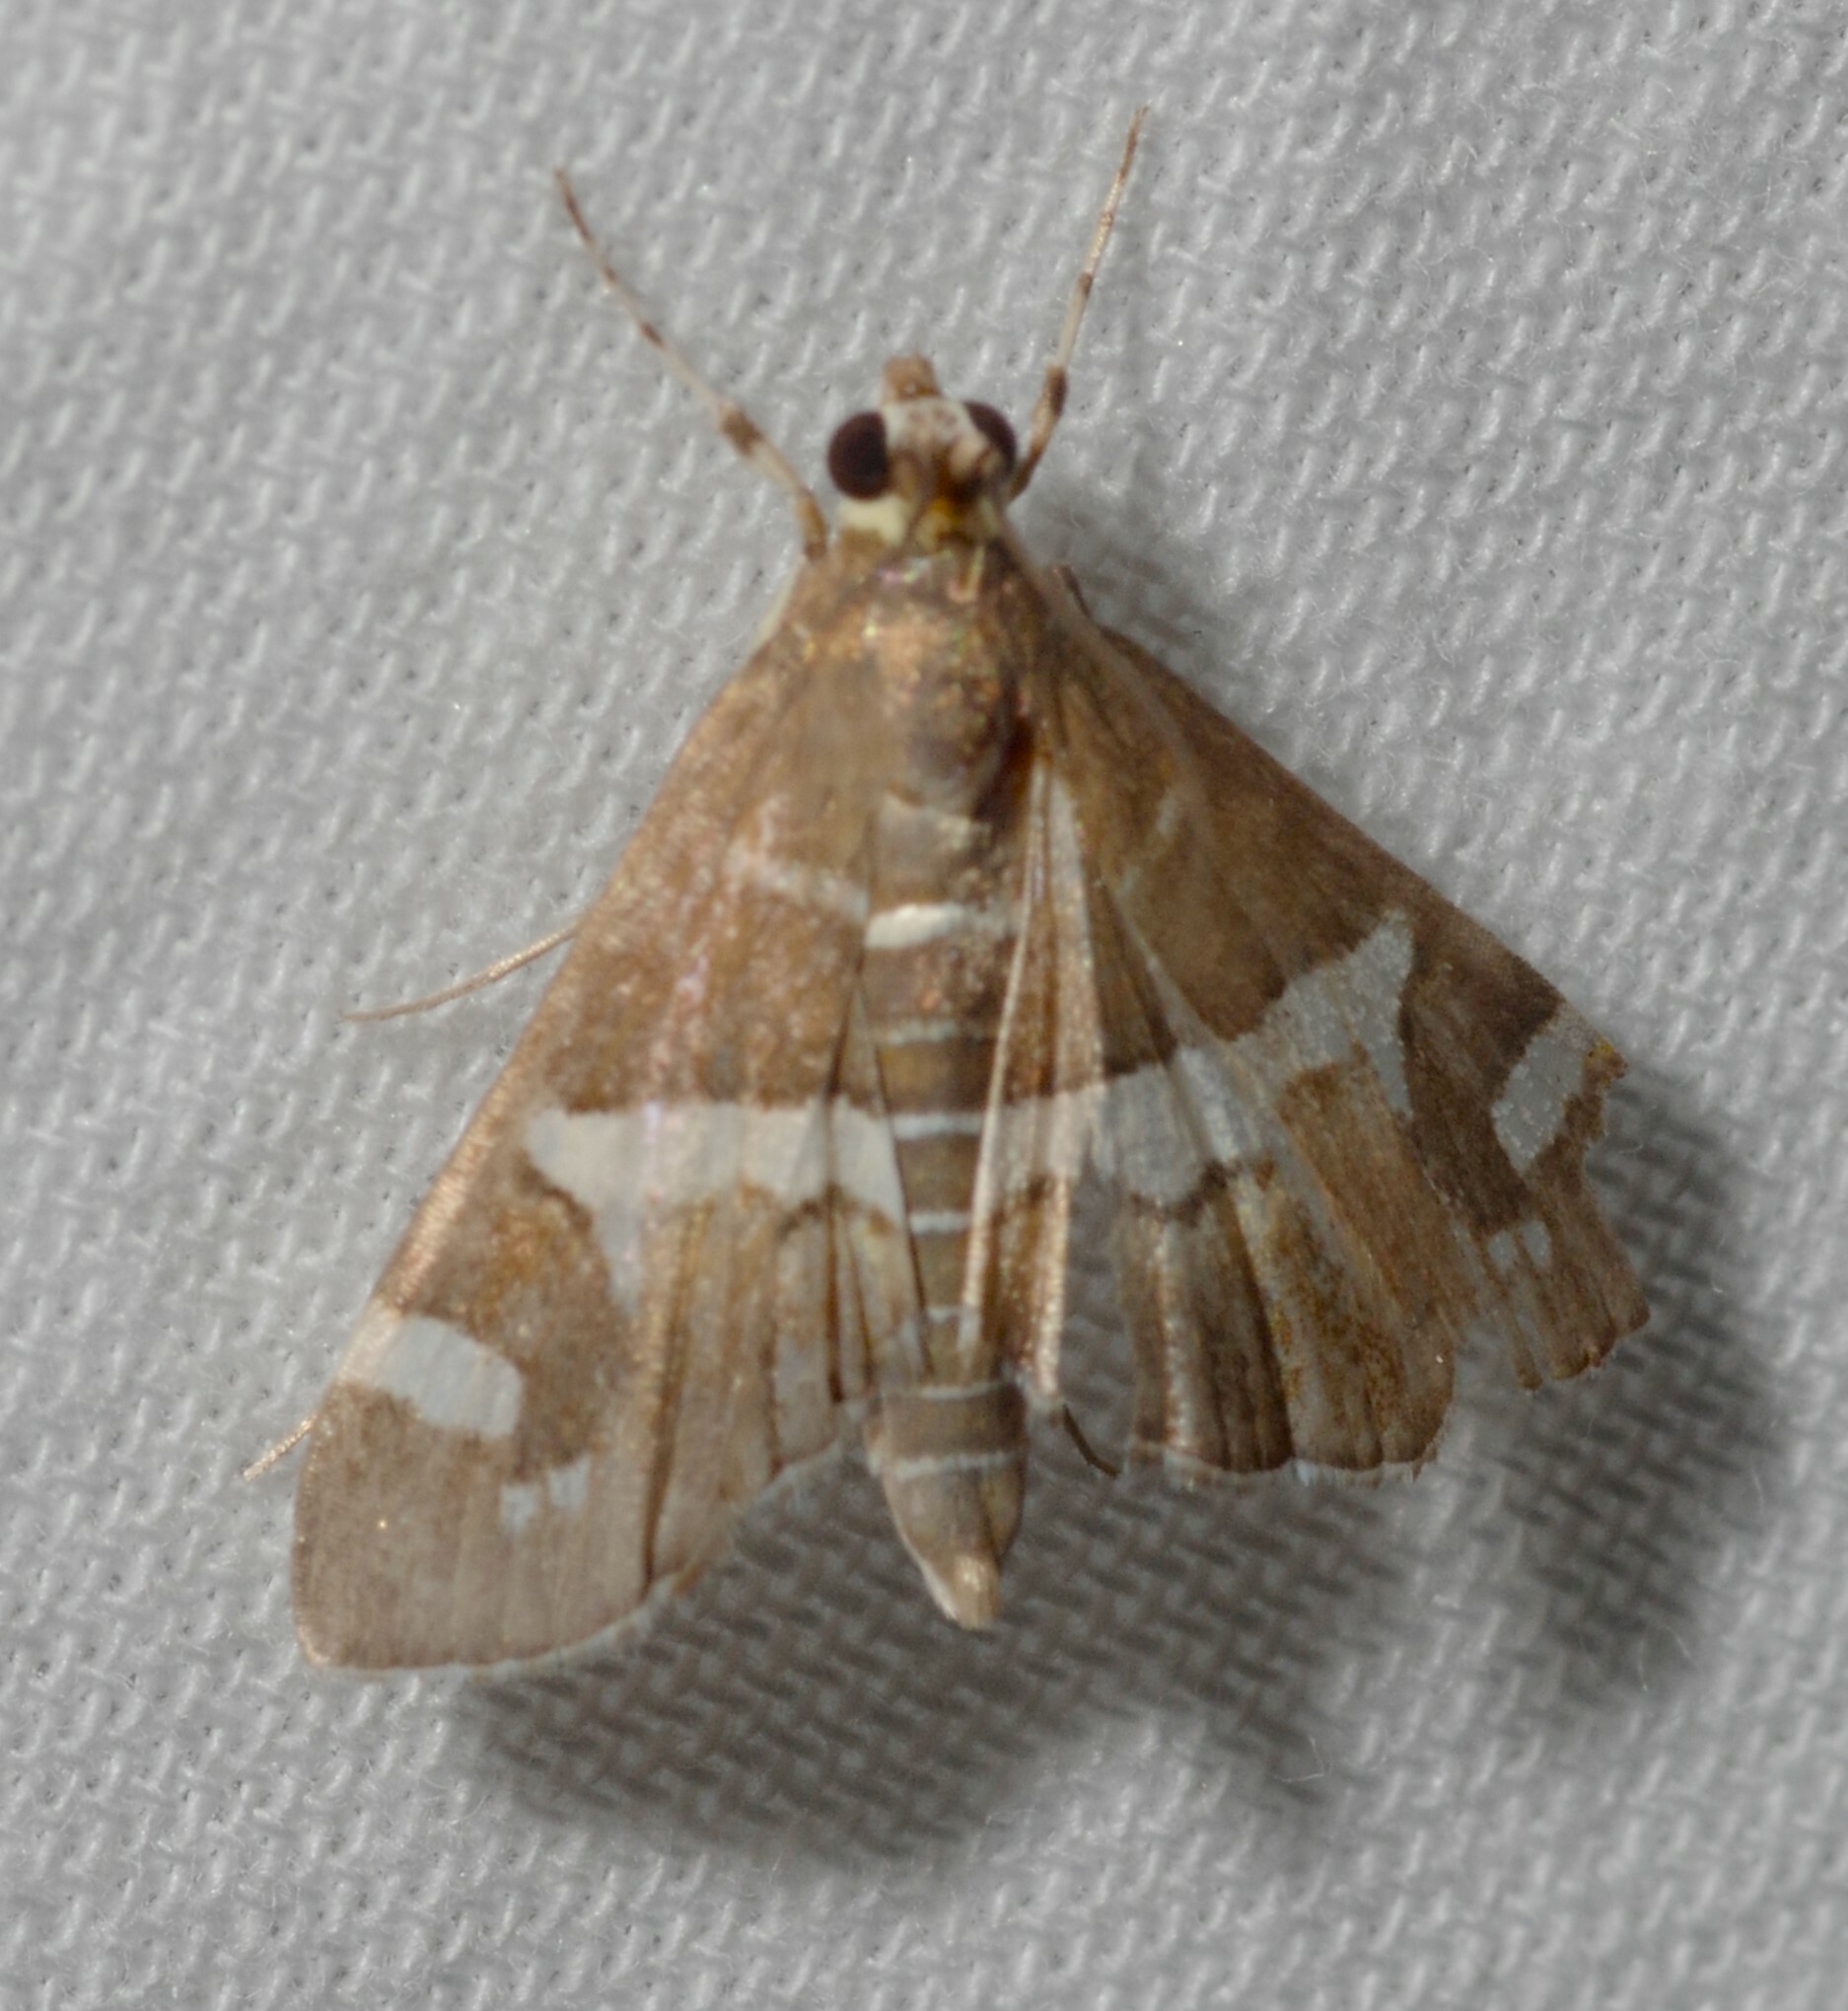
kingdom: Animalia
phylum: Arthropoda
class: Insecta
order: Lepidoptera
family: Crambidae
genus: Spoladea
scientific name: Spoladea recurvalis
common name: Beet webworm moth
